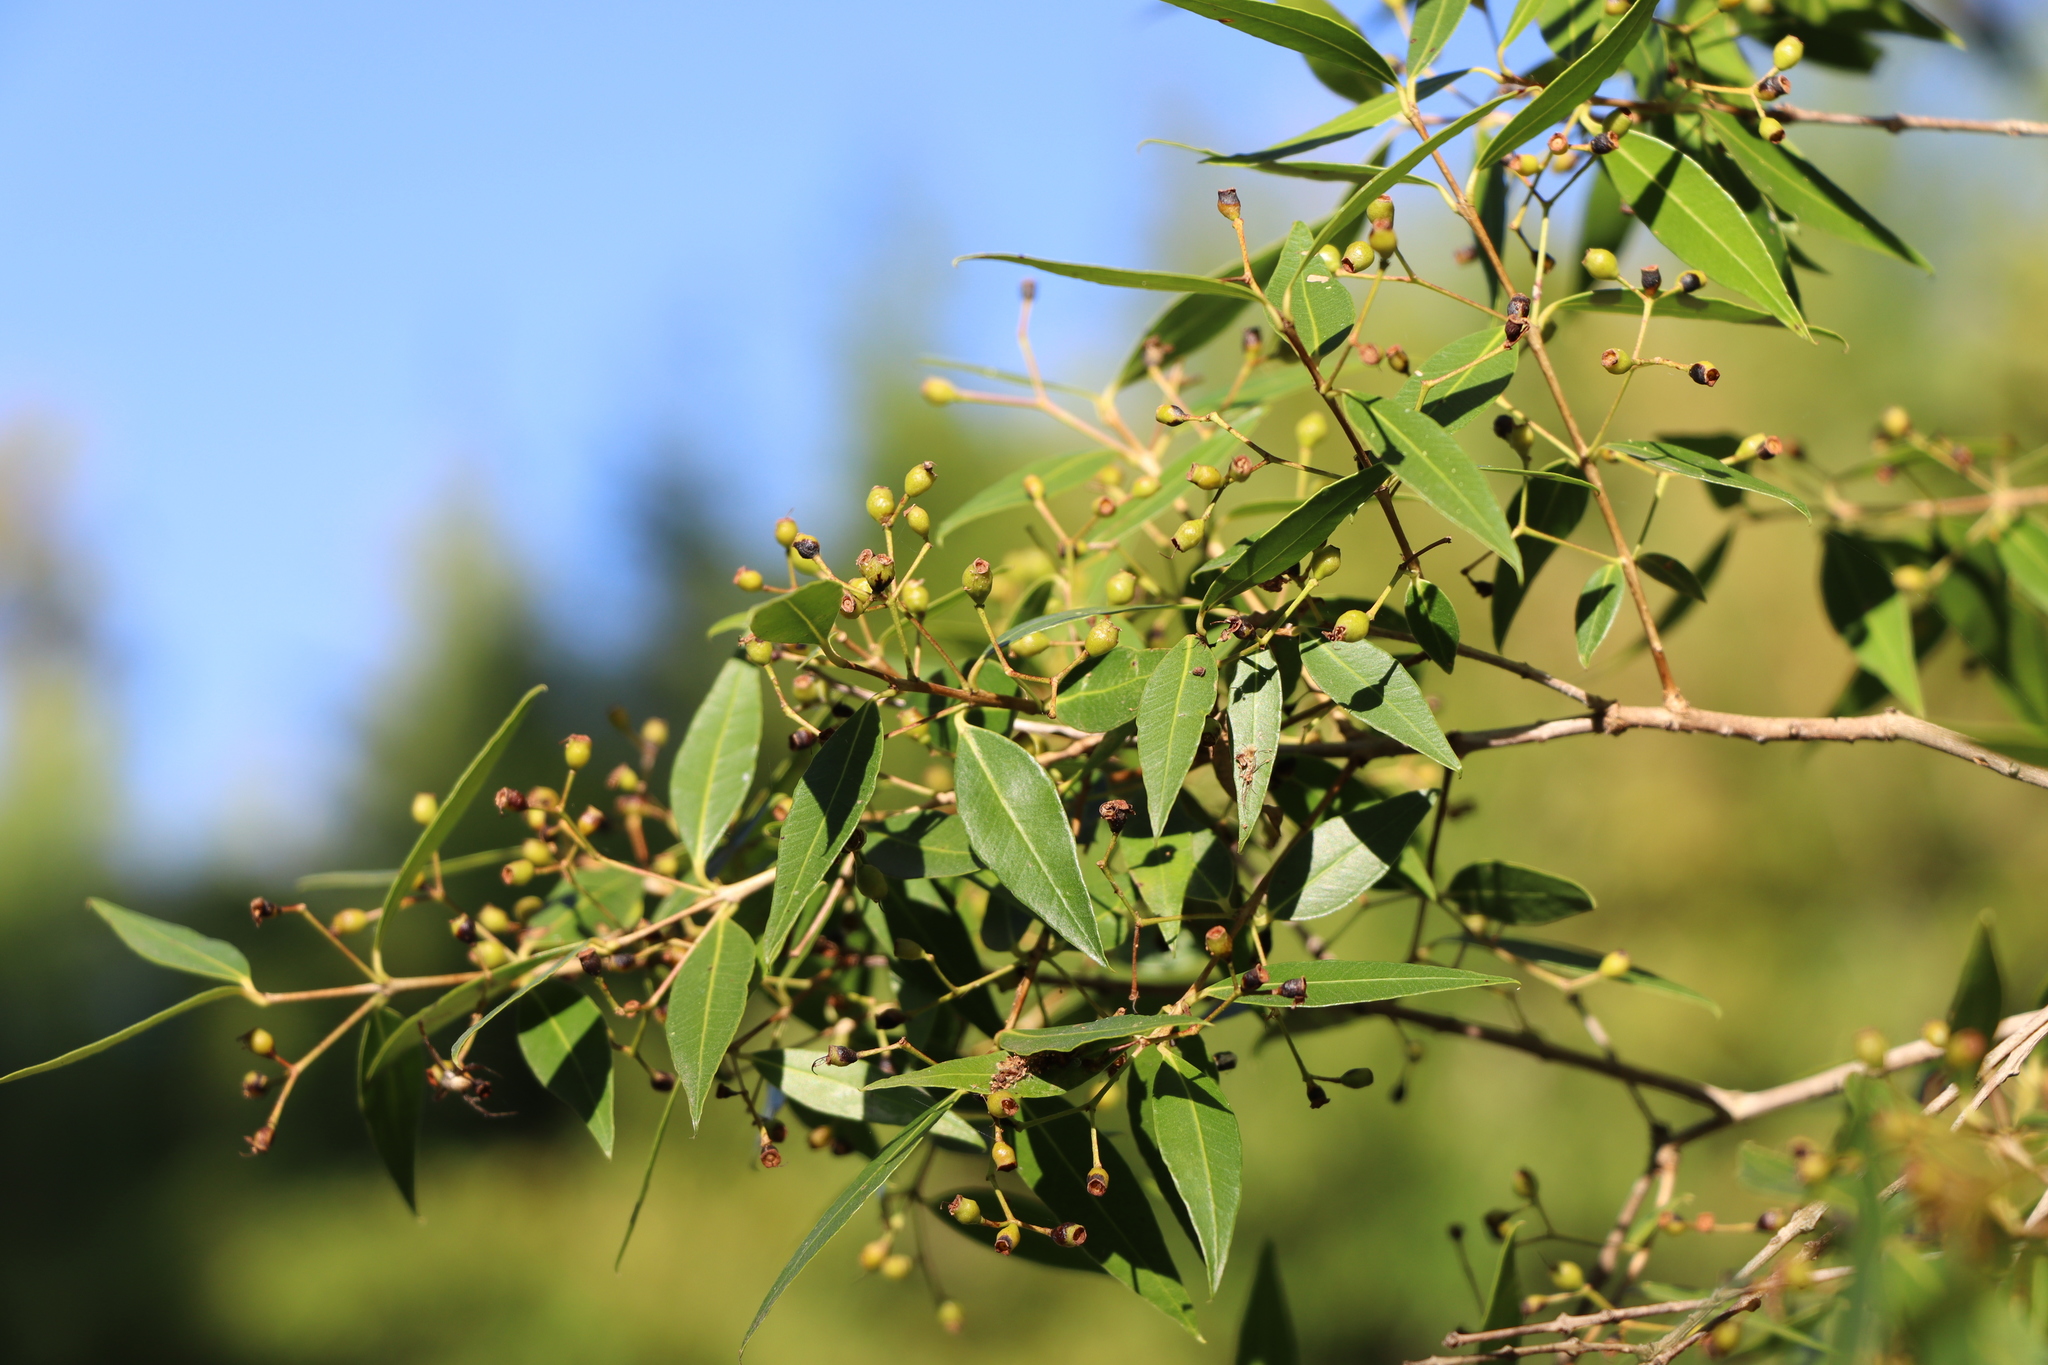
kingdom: Plantae
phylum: Tracheophyta
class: Magnoliopsida
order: Myrtales
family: Myrtaceae
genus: Blepharocalyx
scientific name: Blepharocalyx salicifolius
